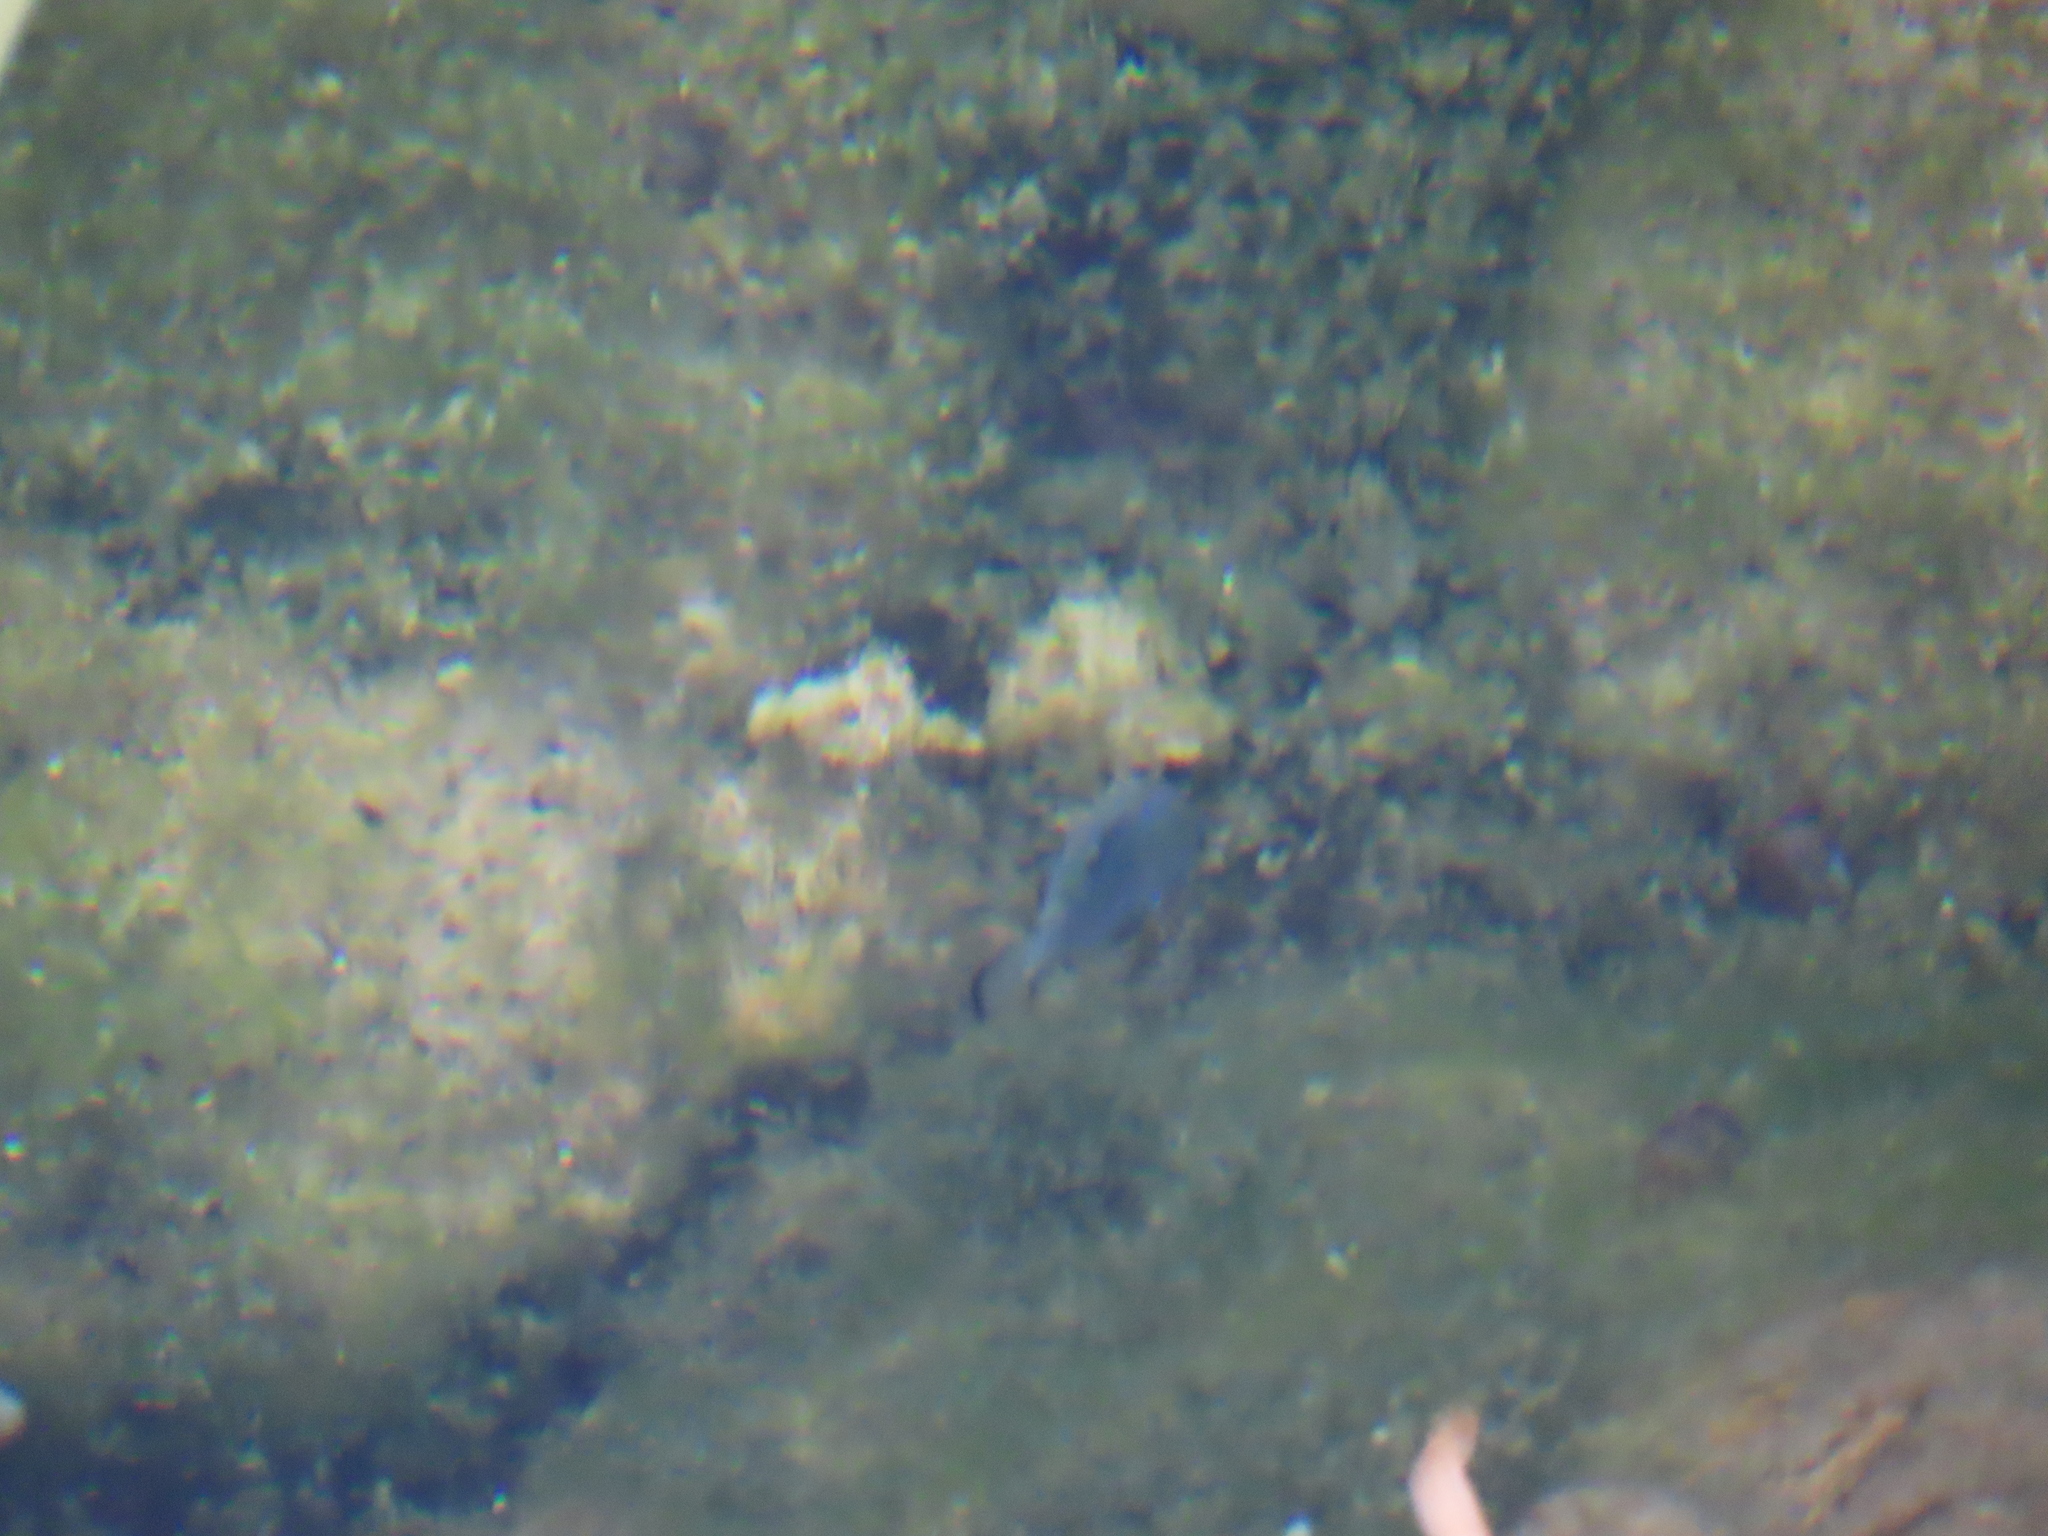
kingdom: Animalia
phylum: Chordata
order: Cyprinodontiformes
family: Cyprinodontidae
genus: Cyprinodon
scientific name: Cyprinodon nevadensis
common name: Amargosa pupfish
